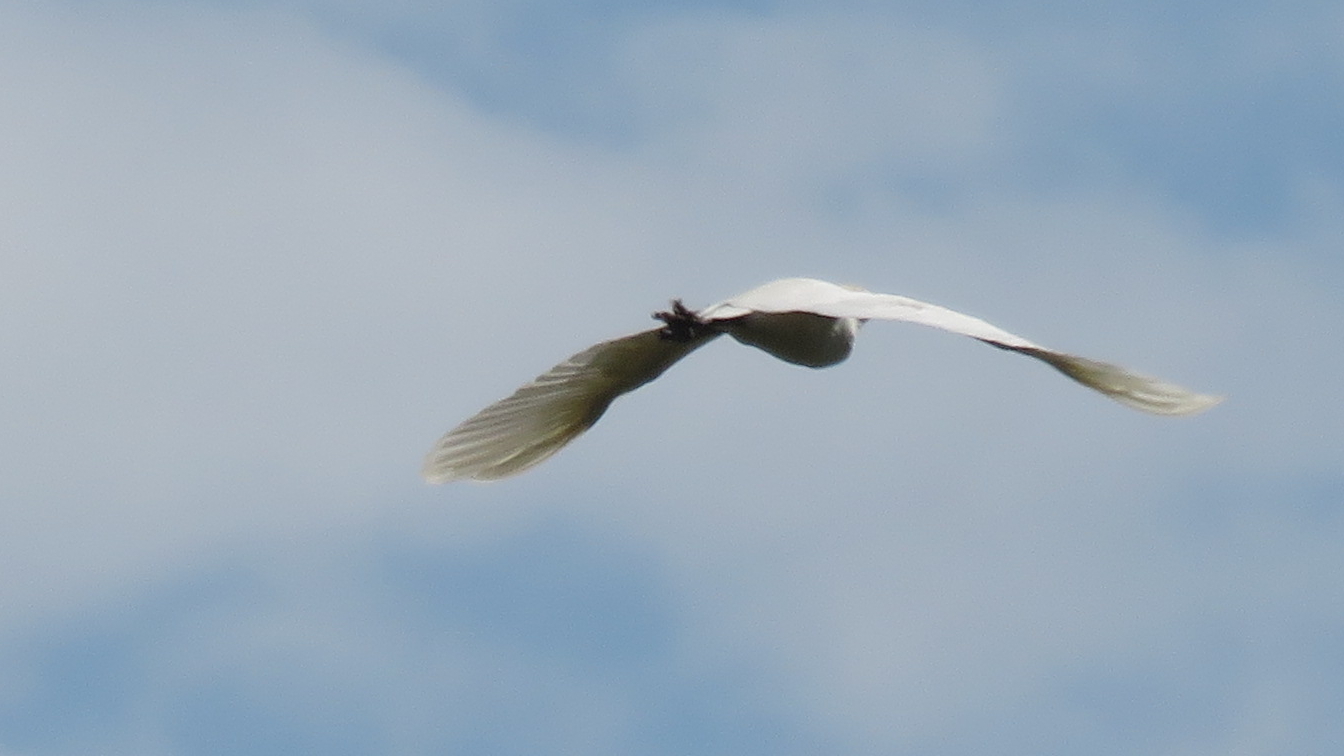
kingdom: Animalia
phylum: Chordata
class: Aves
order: Pelecaniformes
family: Ardeidae
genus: Bubulcus
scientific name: Bubulcus ibis
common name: Cattle egret
